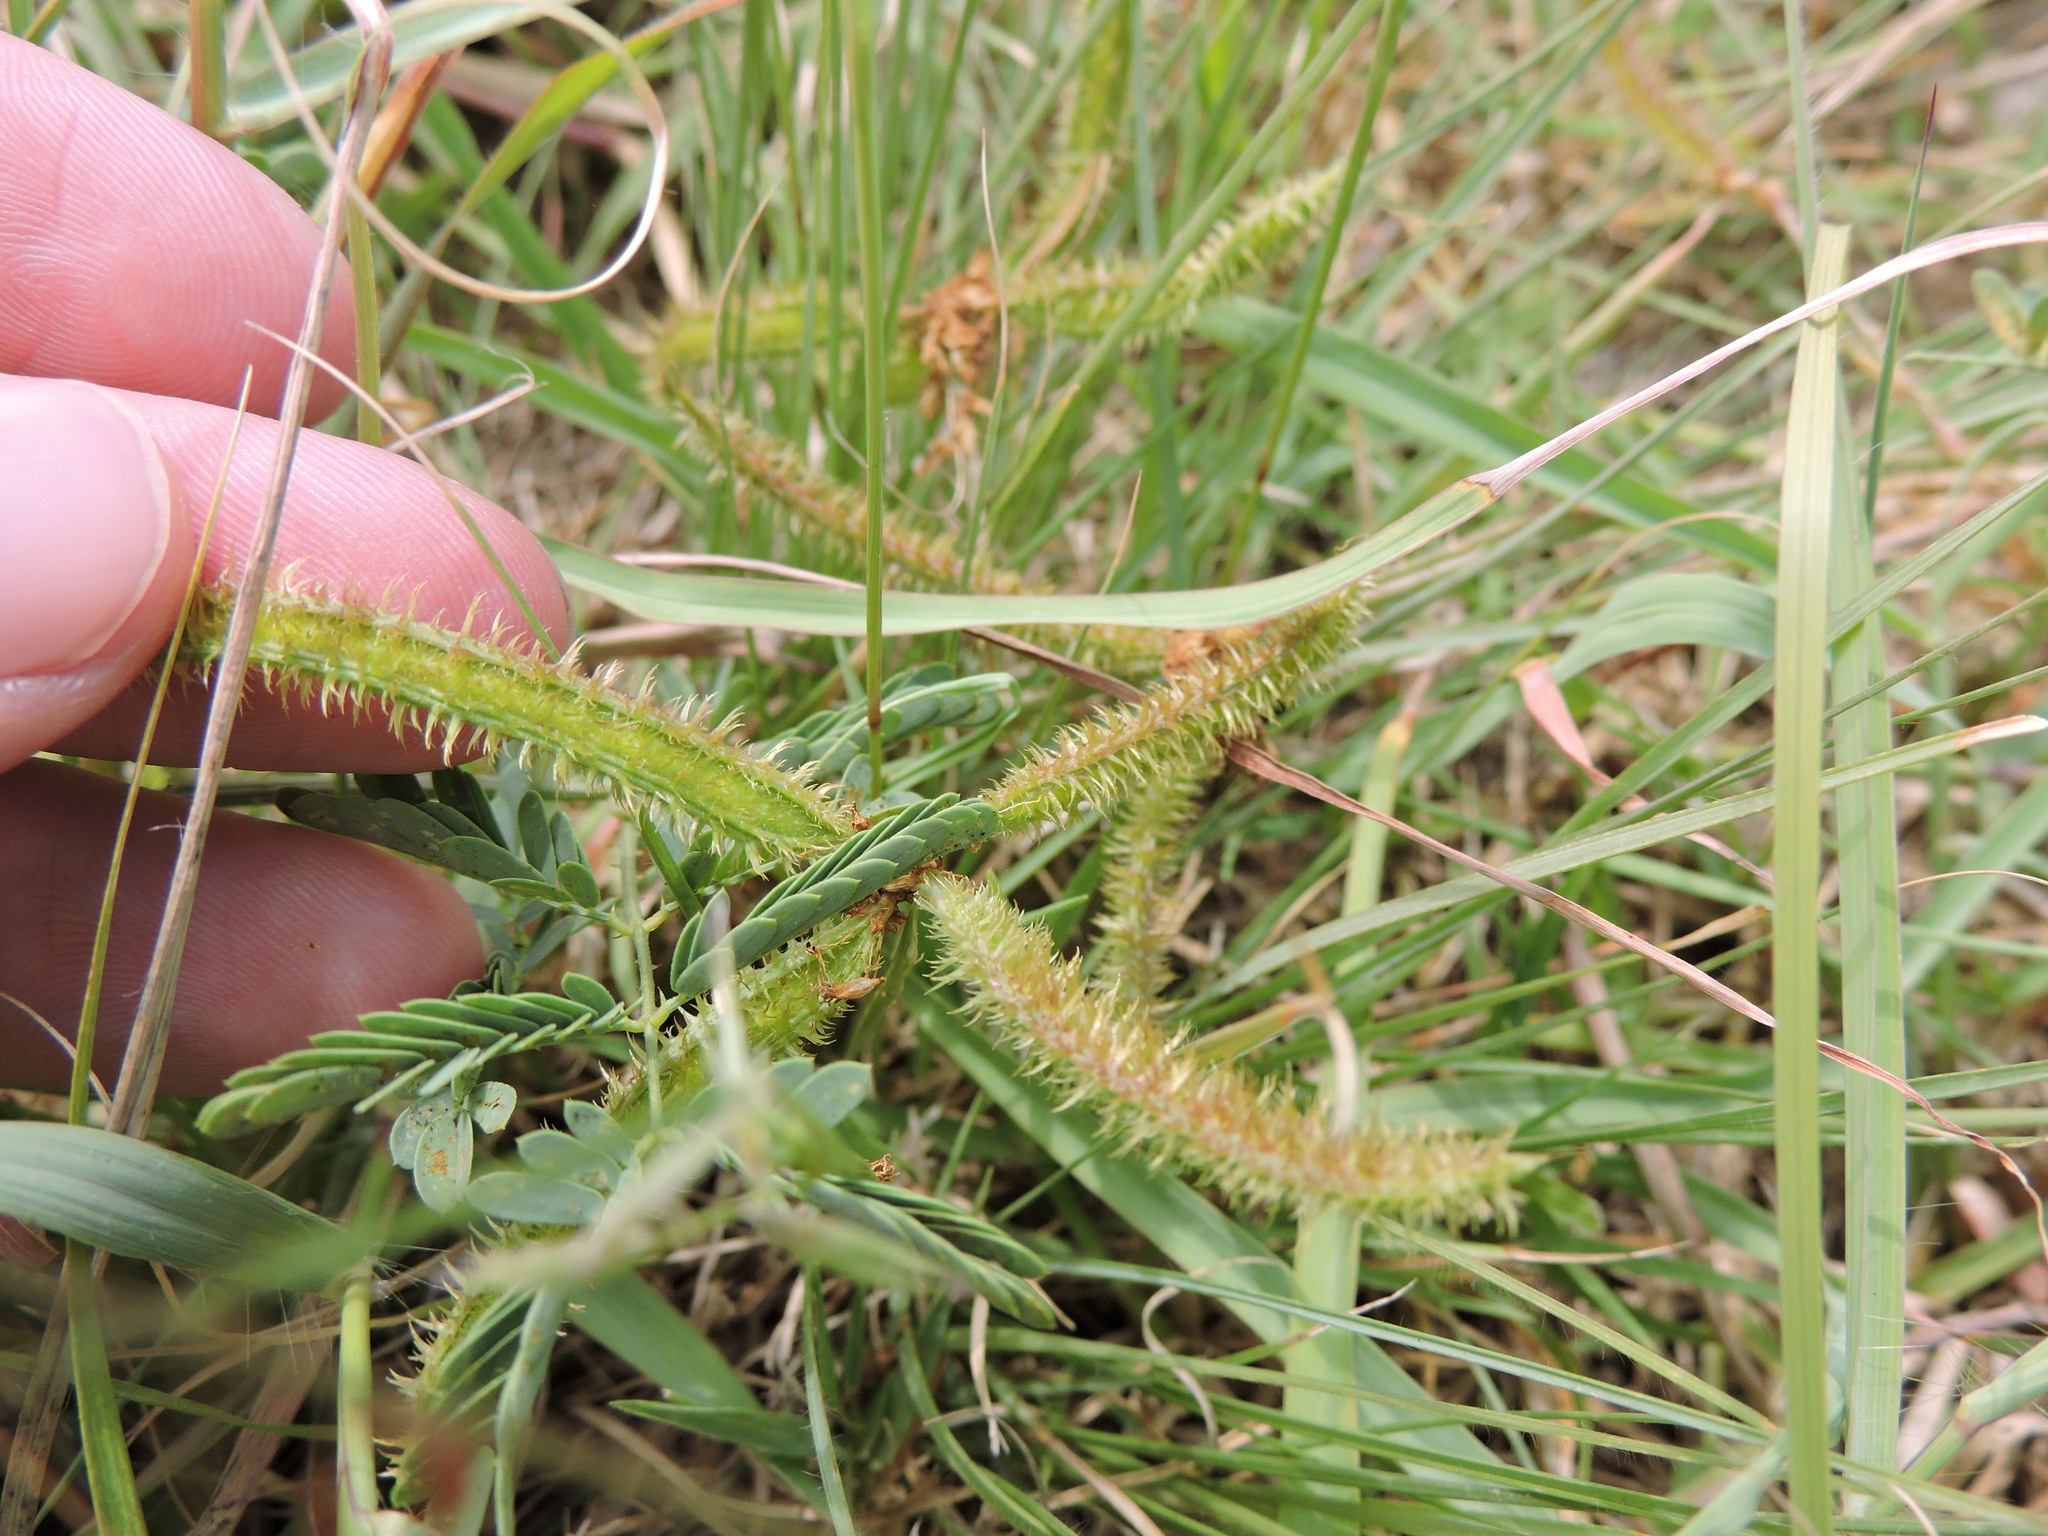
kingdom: Plantae
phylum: Tracheophyta
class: Magnoliopsida
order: Fabales
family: Fabaceae
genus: Mimosa
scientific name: Mimosa quadrivalvis
